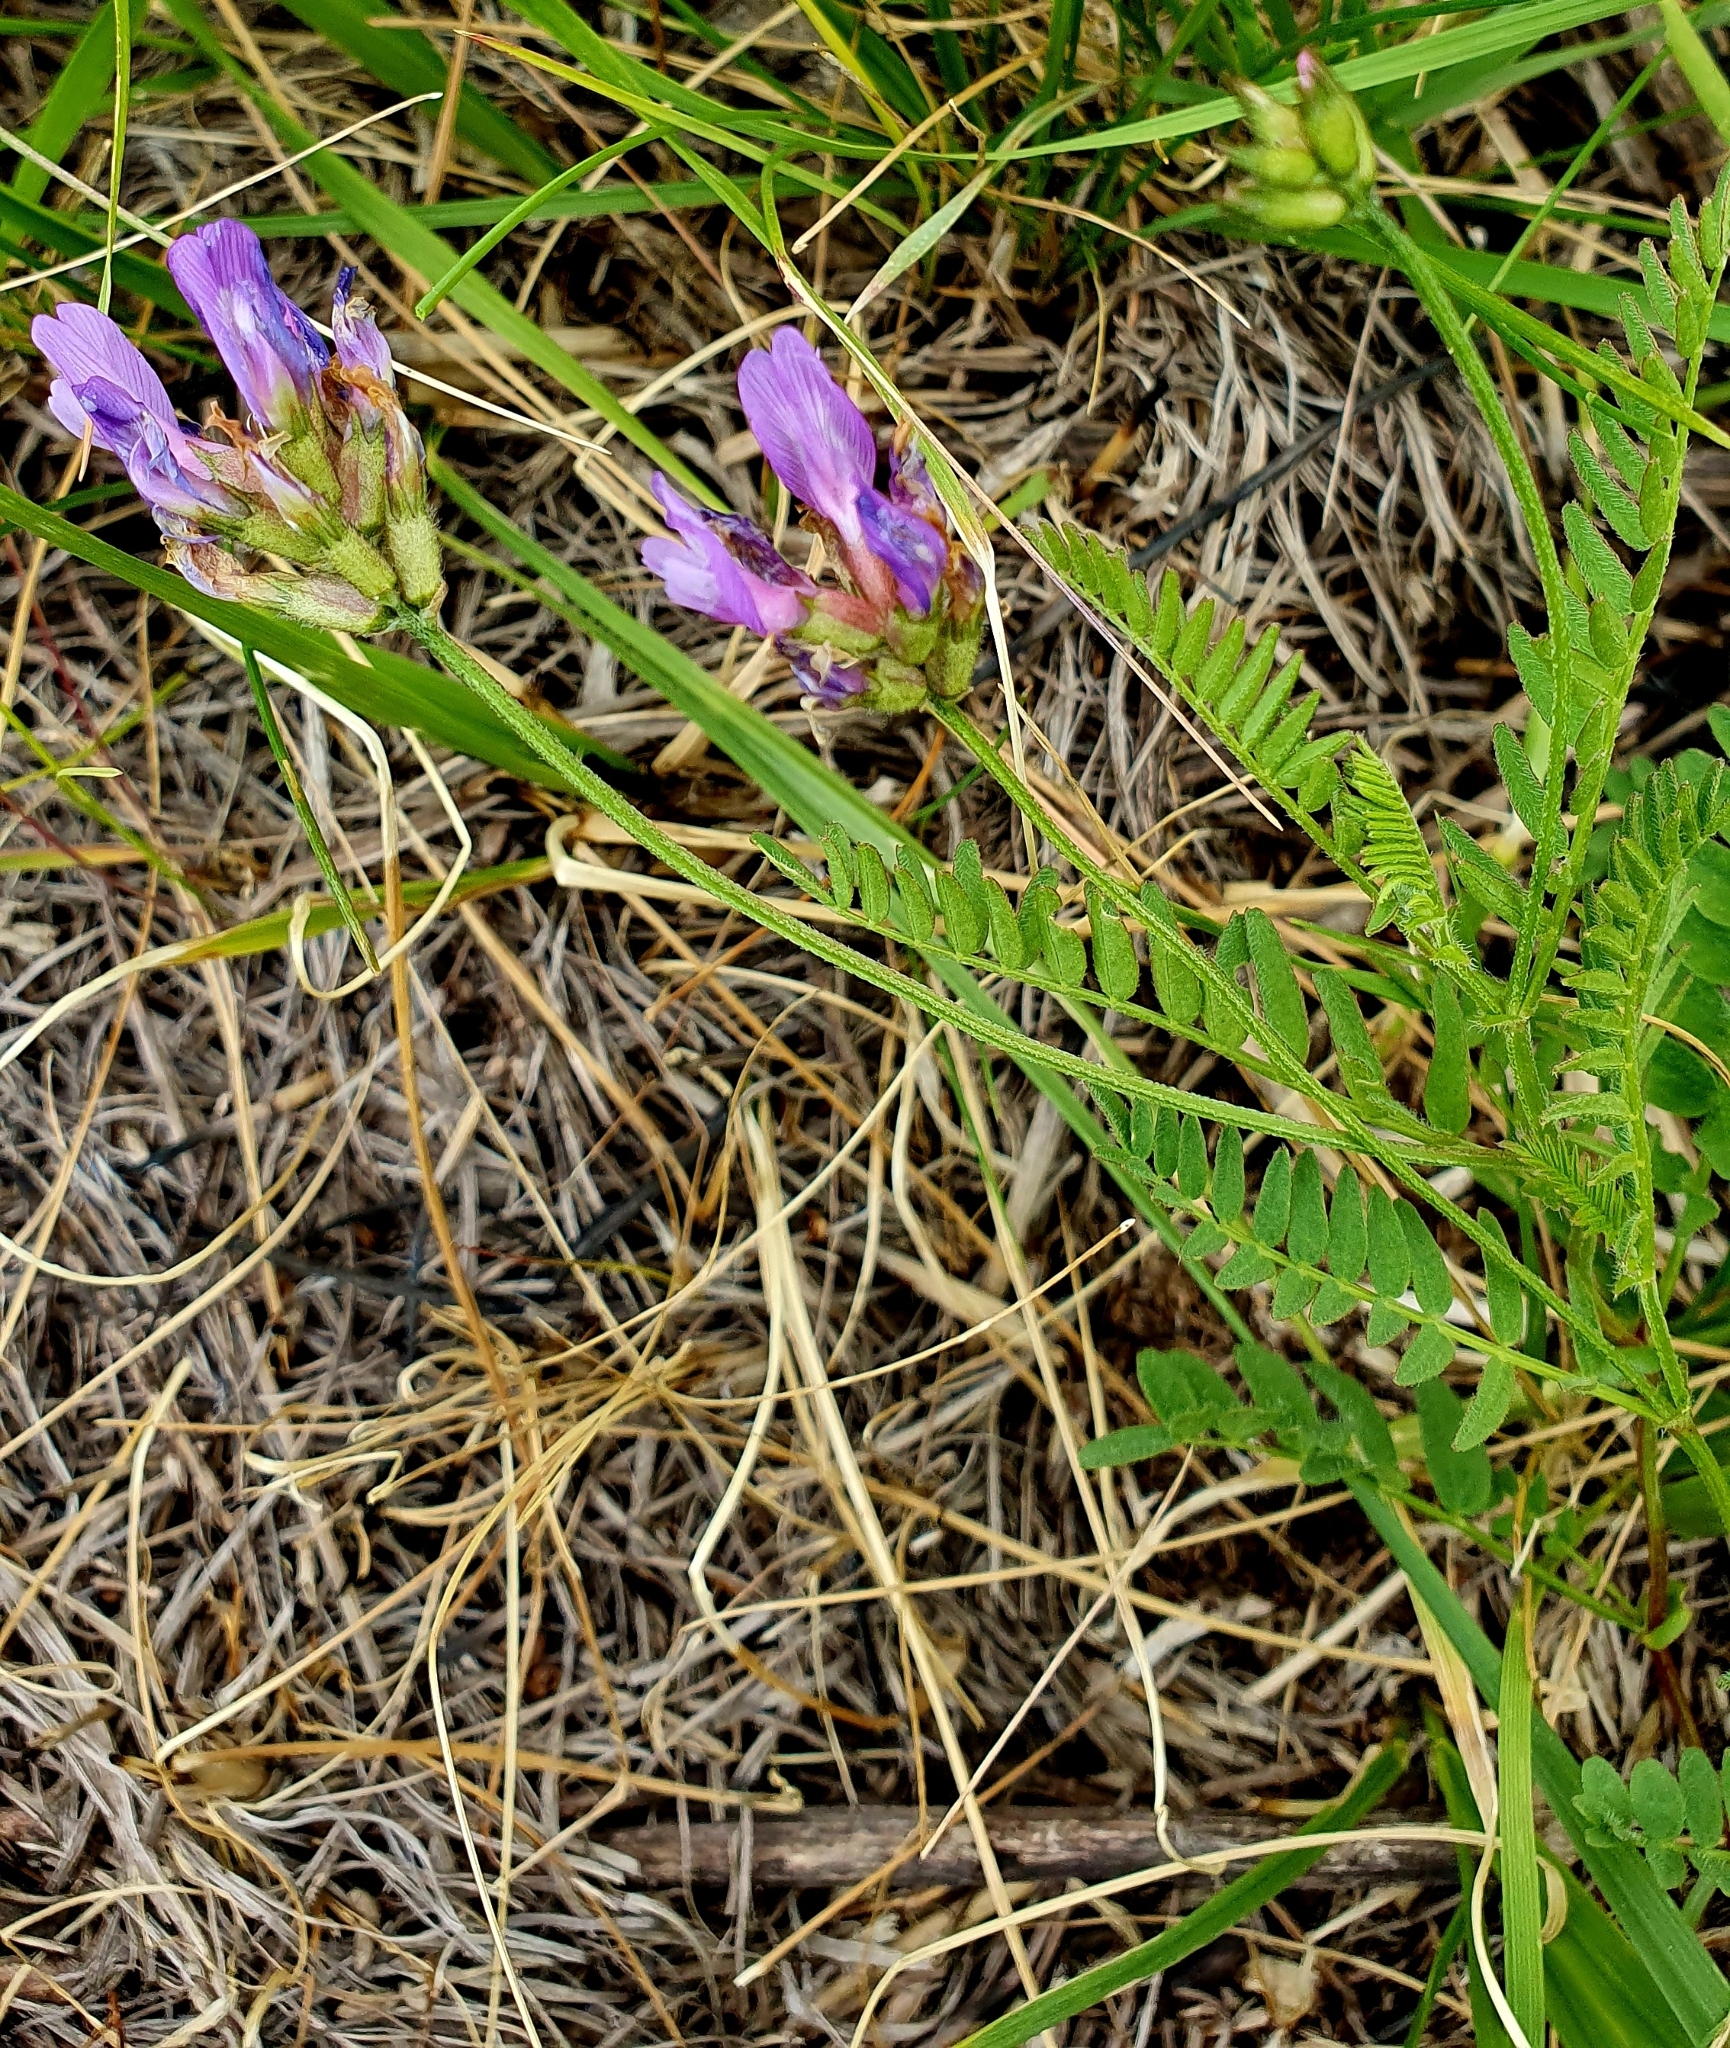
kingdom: Plantae
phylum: Tracheophyta
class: Magnoliopsida
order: Fabales
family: Fabaceae
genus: Astragalus
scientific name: Astragalus danicus
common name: Purple milk-vetch
